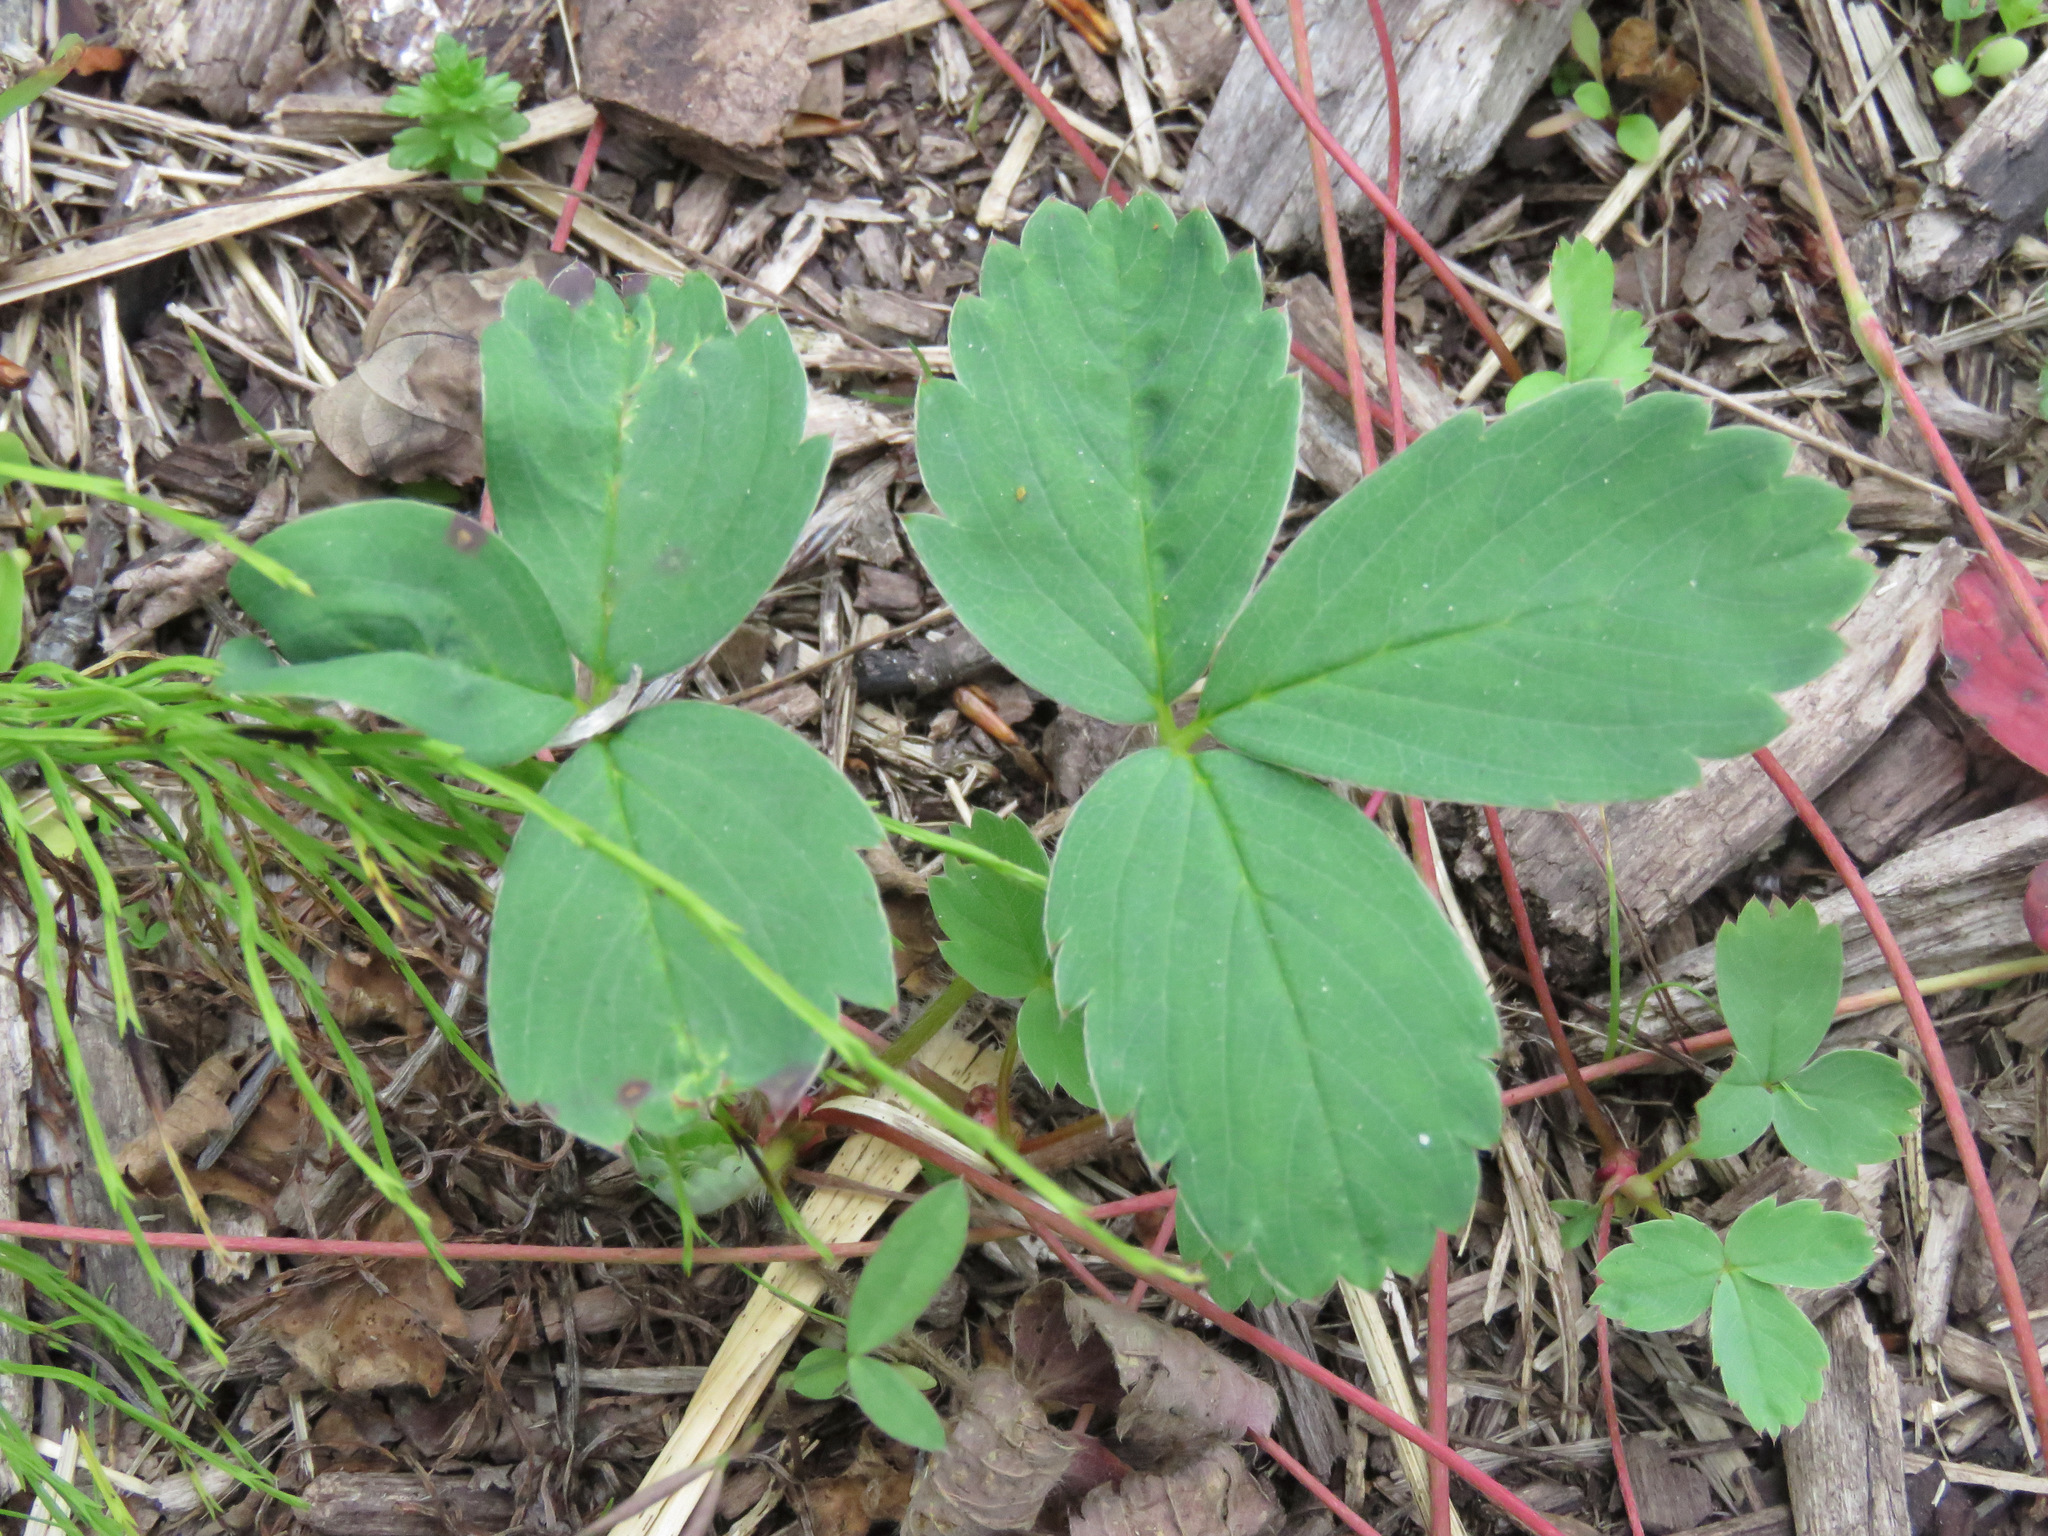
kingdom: Plantae
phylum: Tracheophyta
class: Magnoliopsida
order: Rosales
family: Rosaceae
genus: Fragaria
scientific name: Fragaria virginiana
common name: Thickleaved wild strawberry
